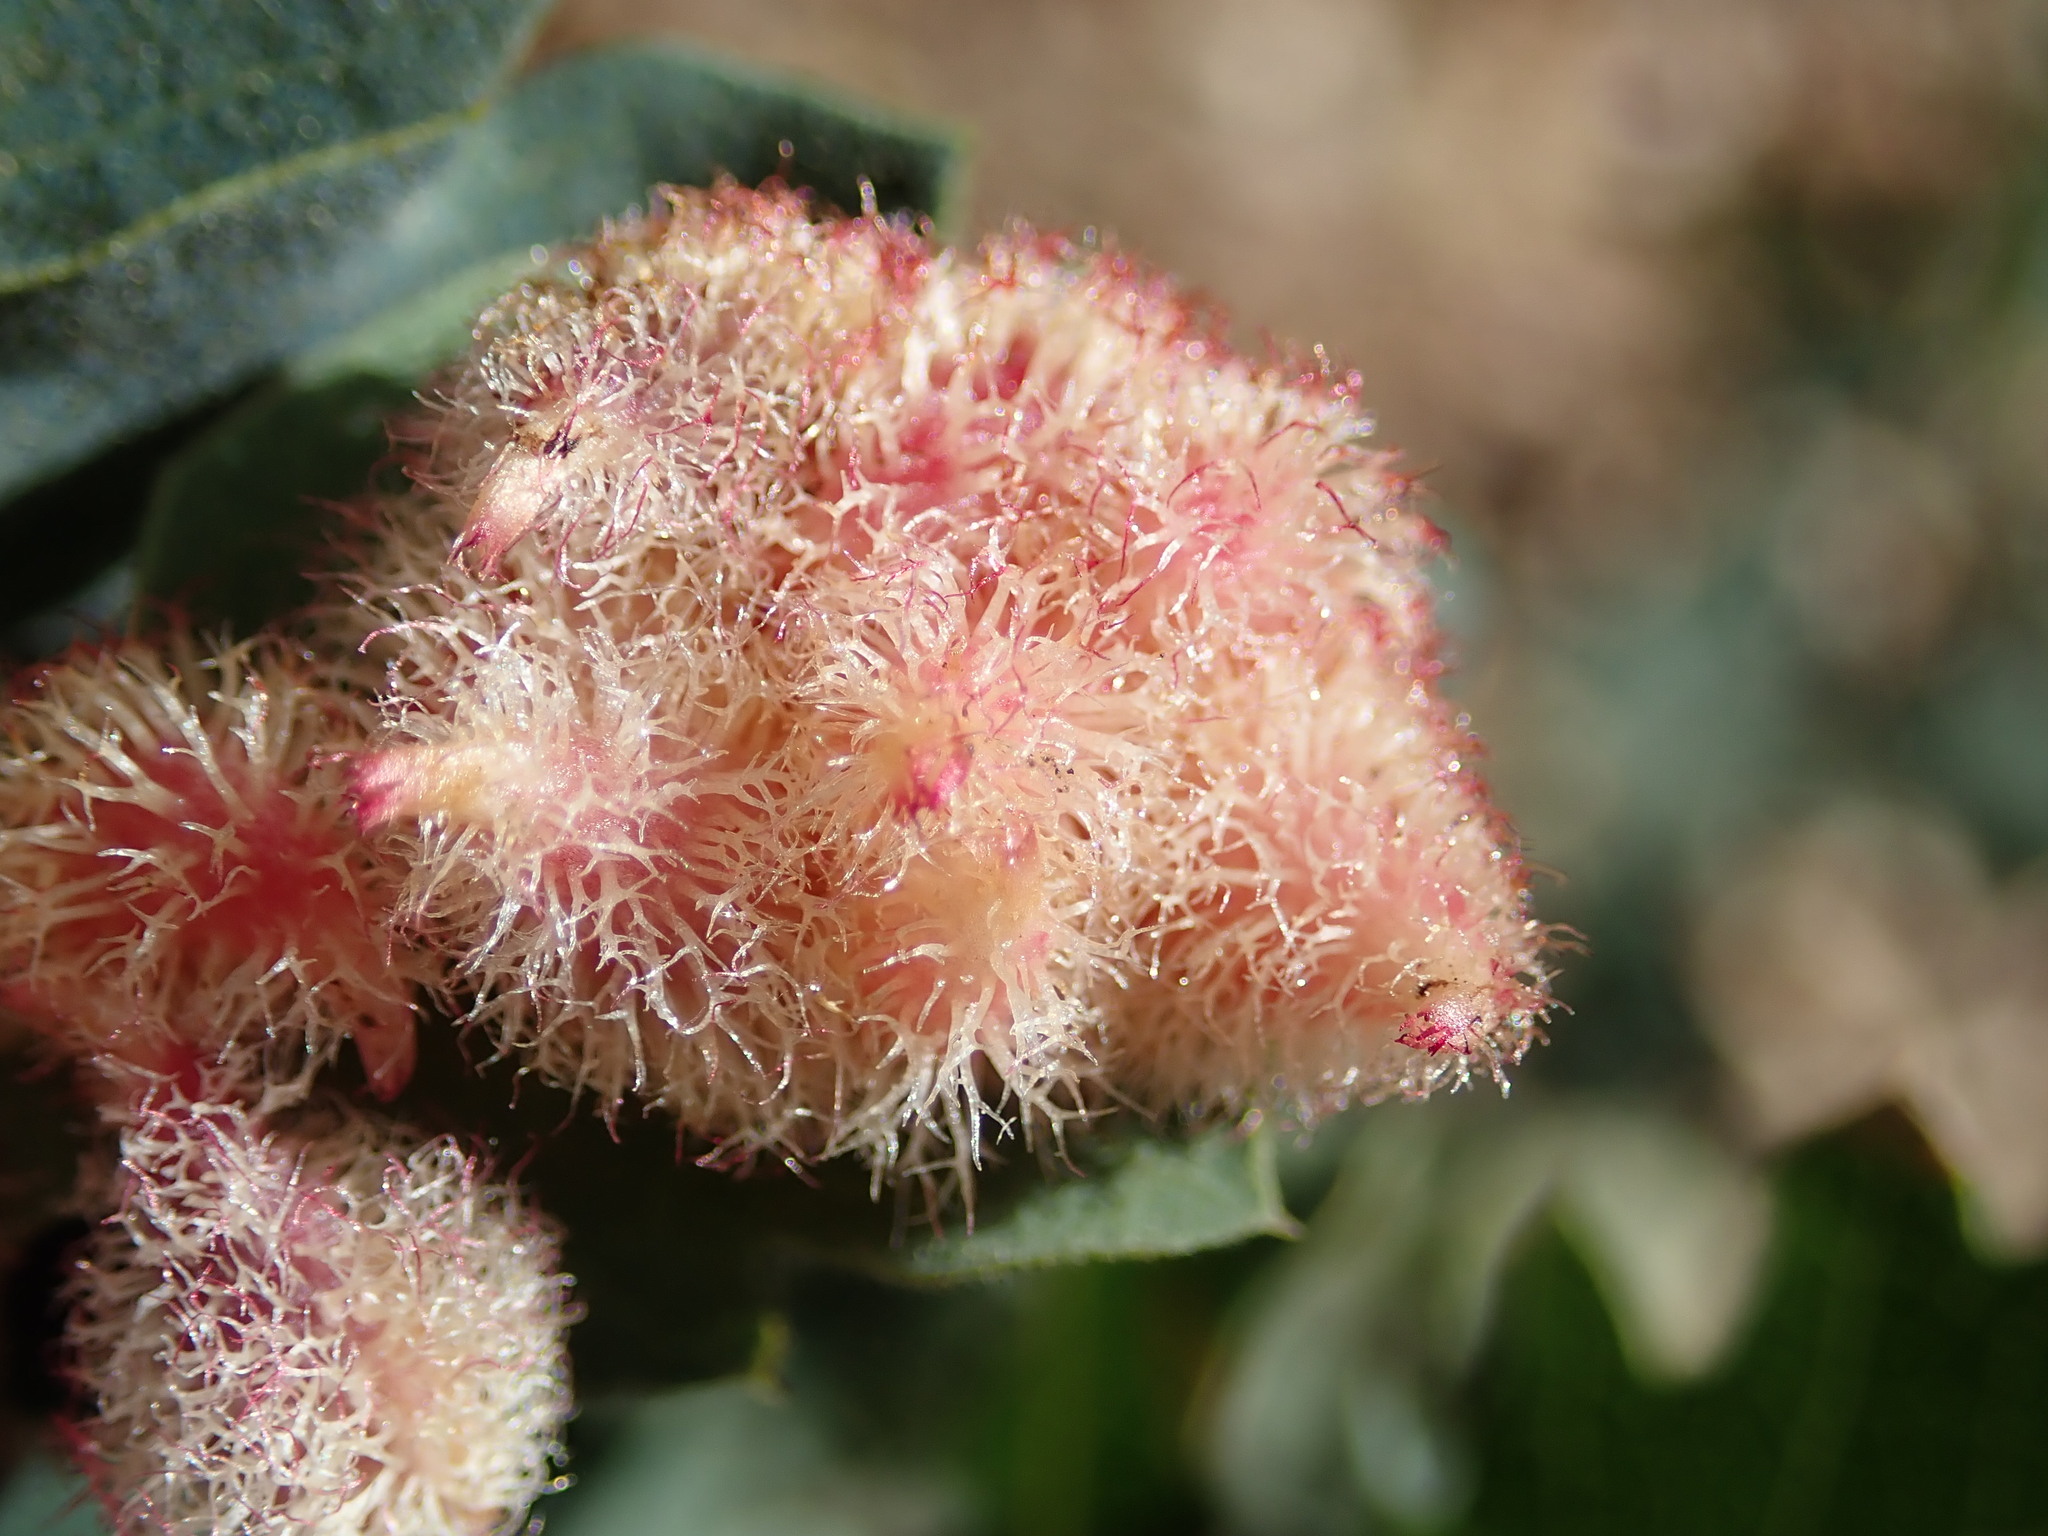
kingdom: Animalia
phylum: Arthropoda
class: Insecta
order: Hymenoptera
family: Cynipidae
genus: Andricus
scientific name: Andricus
